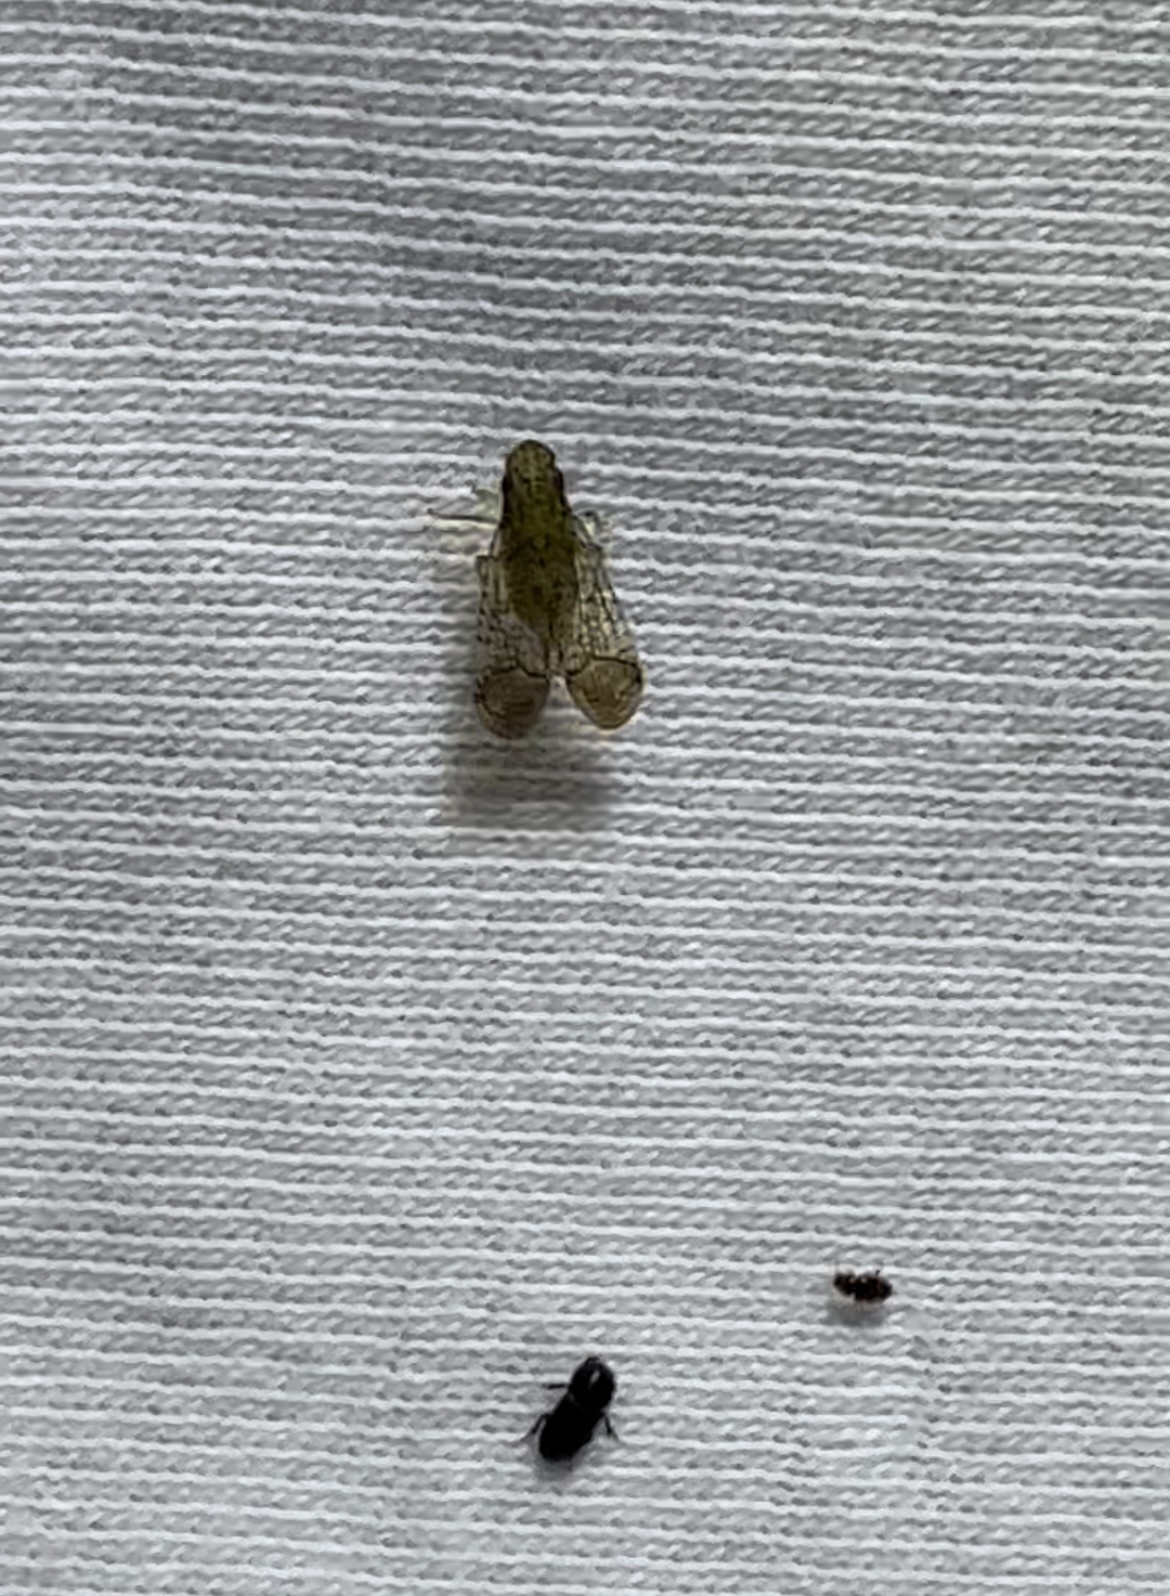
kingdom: Animalia
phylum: Arthropoda
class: Insecta
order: Hemiptera
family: Tropiduchidae
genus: Pelitropis
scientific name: Pelitropis rotulata
